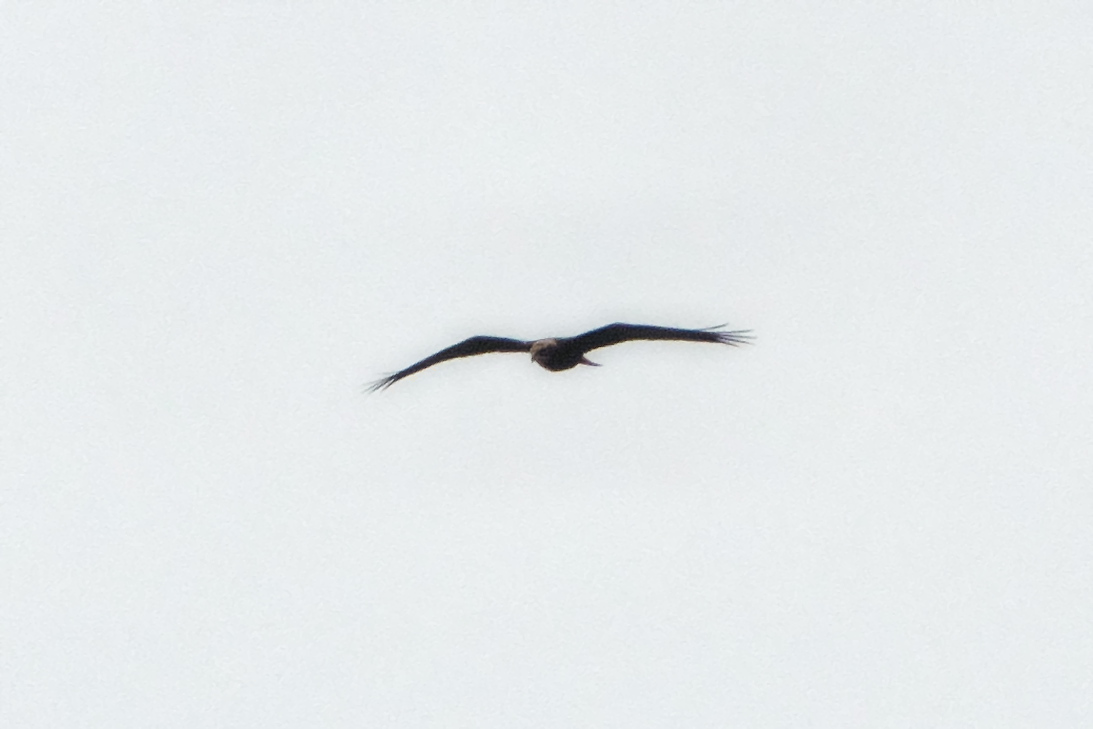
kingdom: Animalia
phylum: Chordata
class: Aves
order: Accipitriformes
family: Accipitridae
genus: Circus
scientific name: Circus aeruginosus
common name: Western marsh harrier
